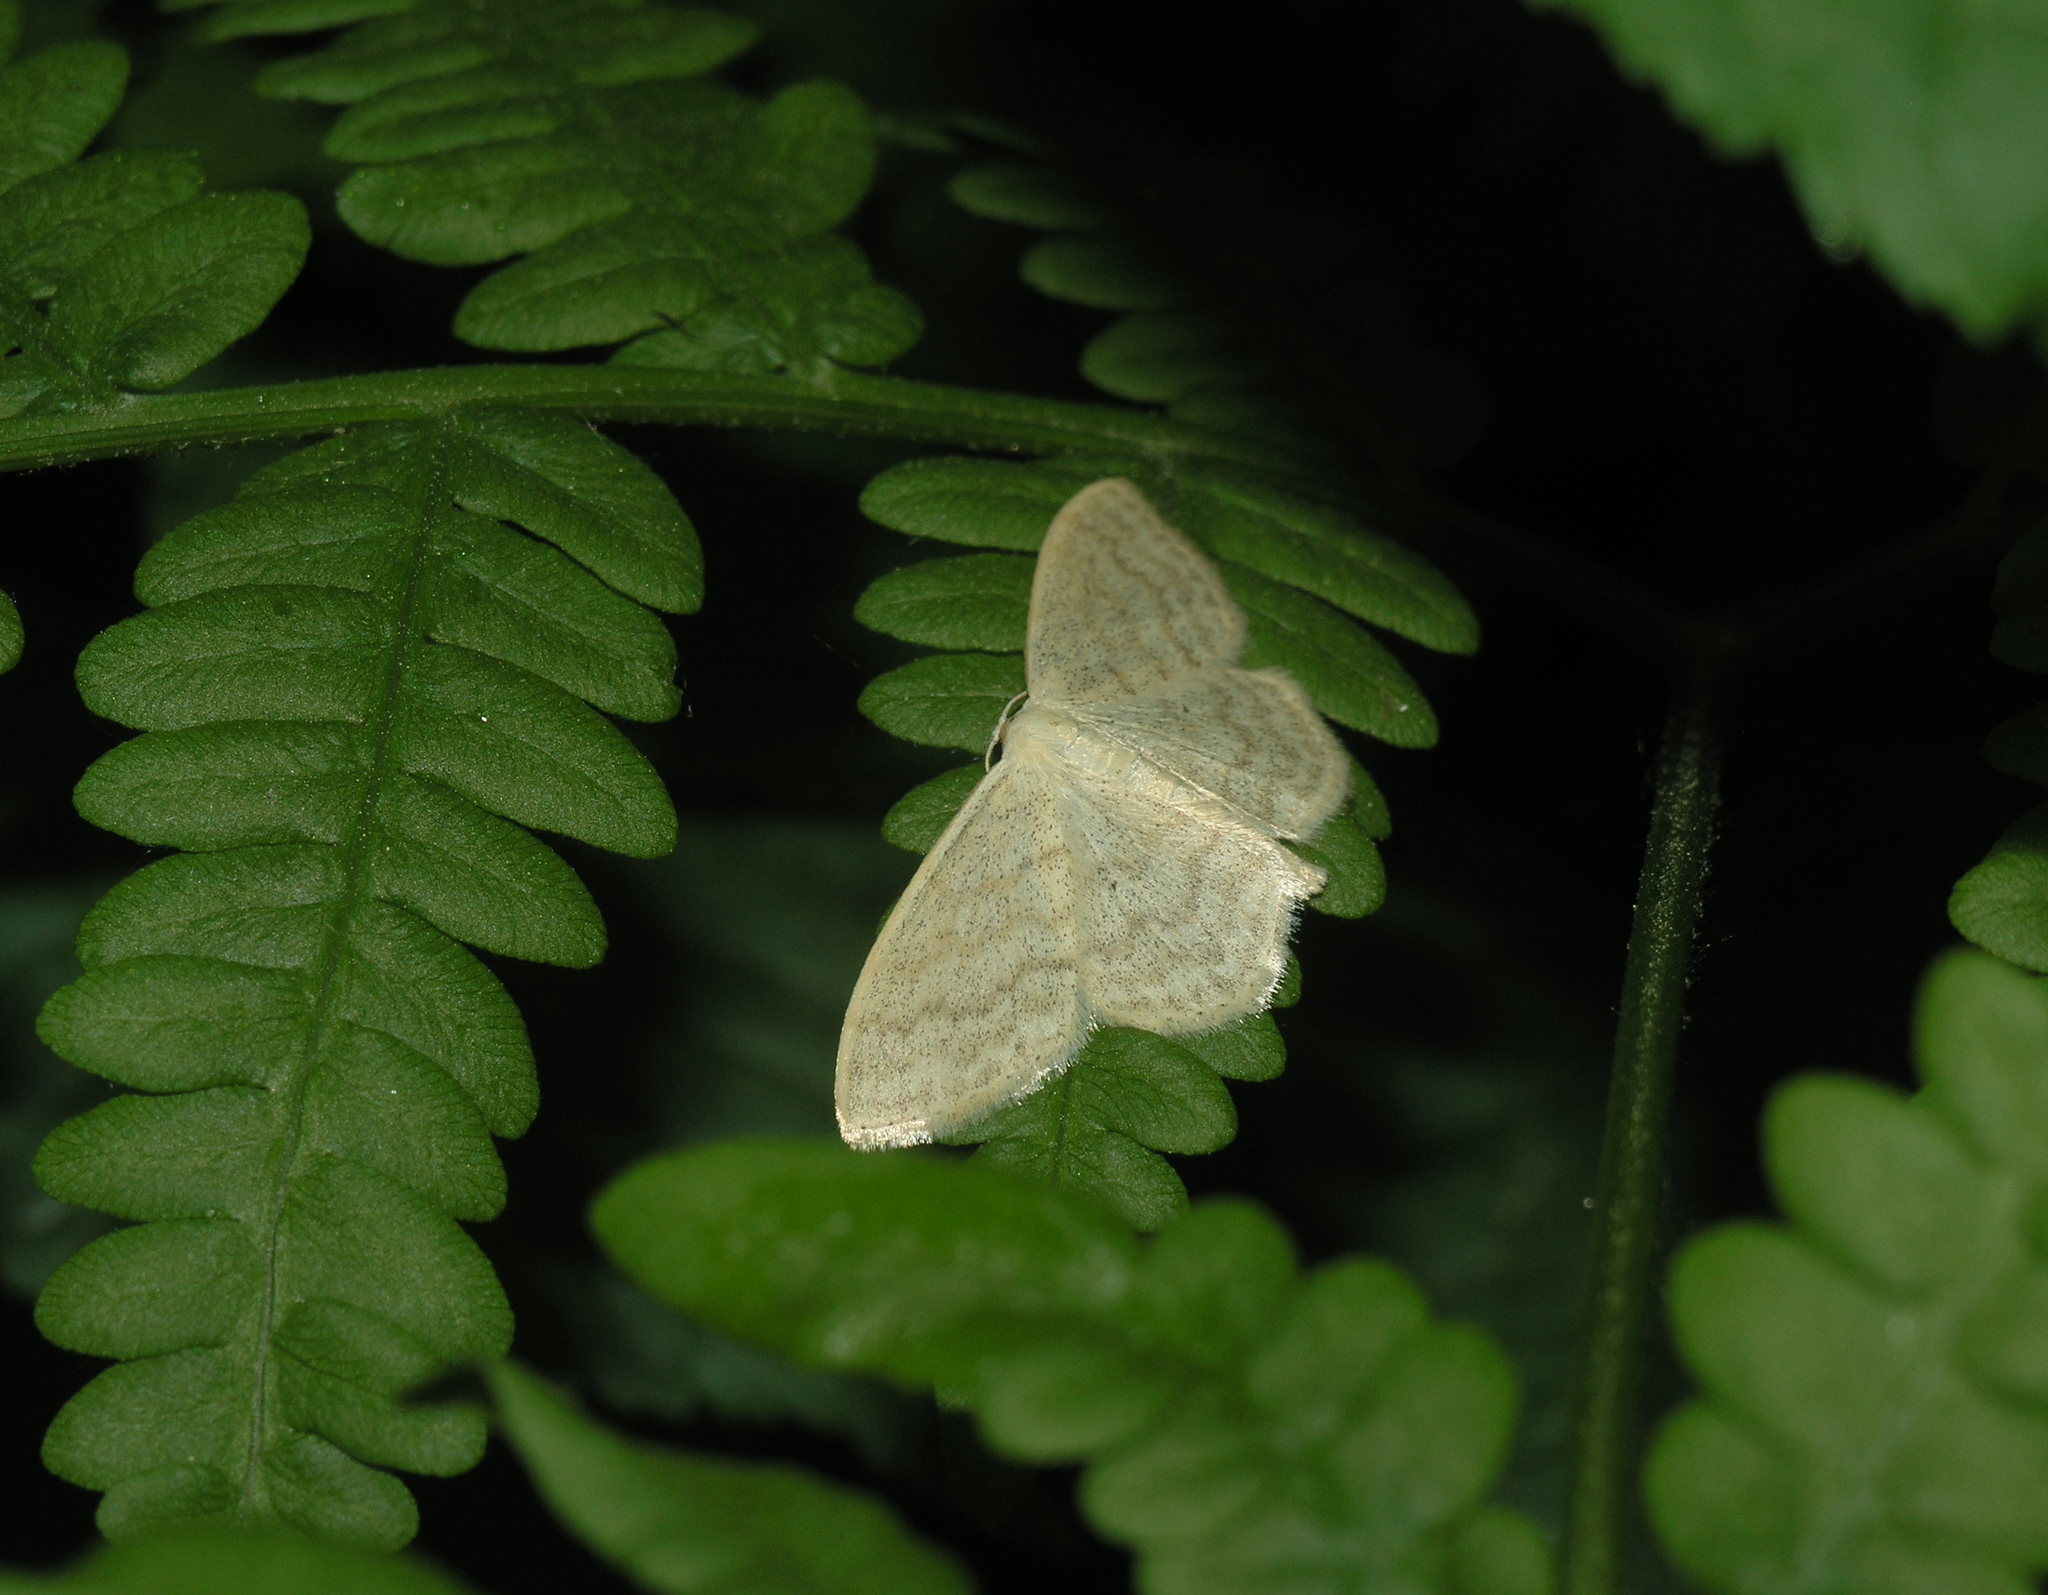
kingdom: Animalia
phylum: Arthropoda
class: Insecta
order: Lepidoptera
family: Geometridae
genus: Scopula
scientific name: Scopula floslactata
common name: Cream wave
